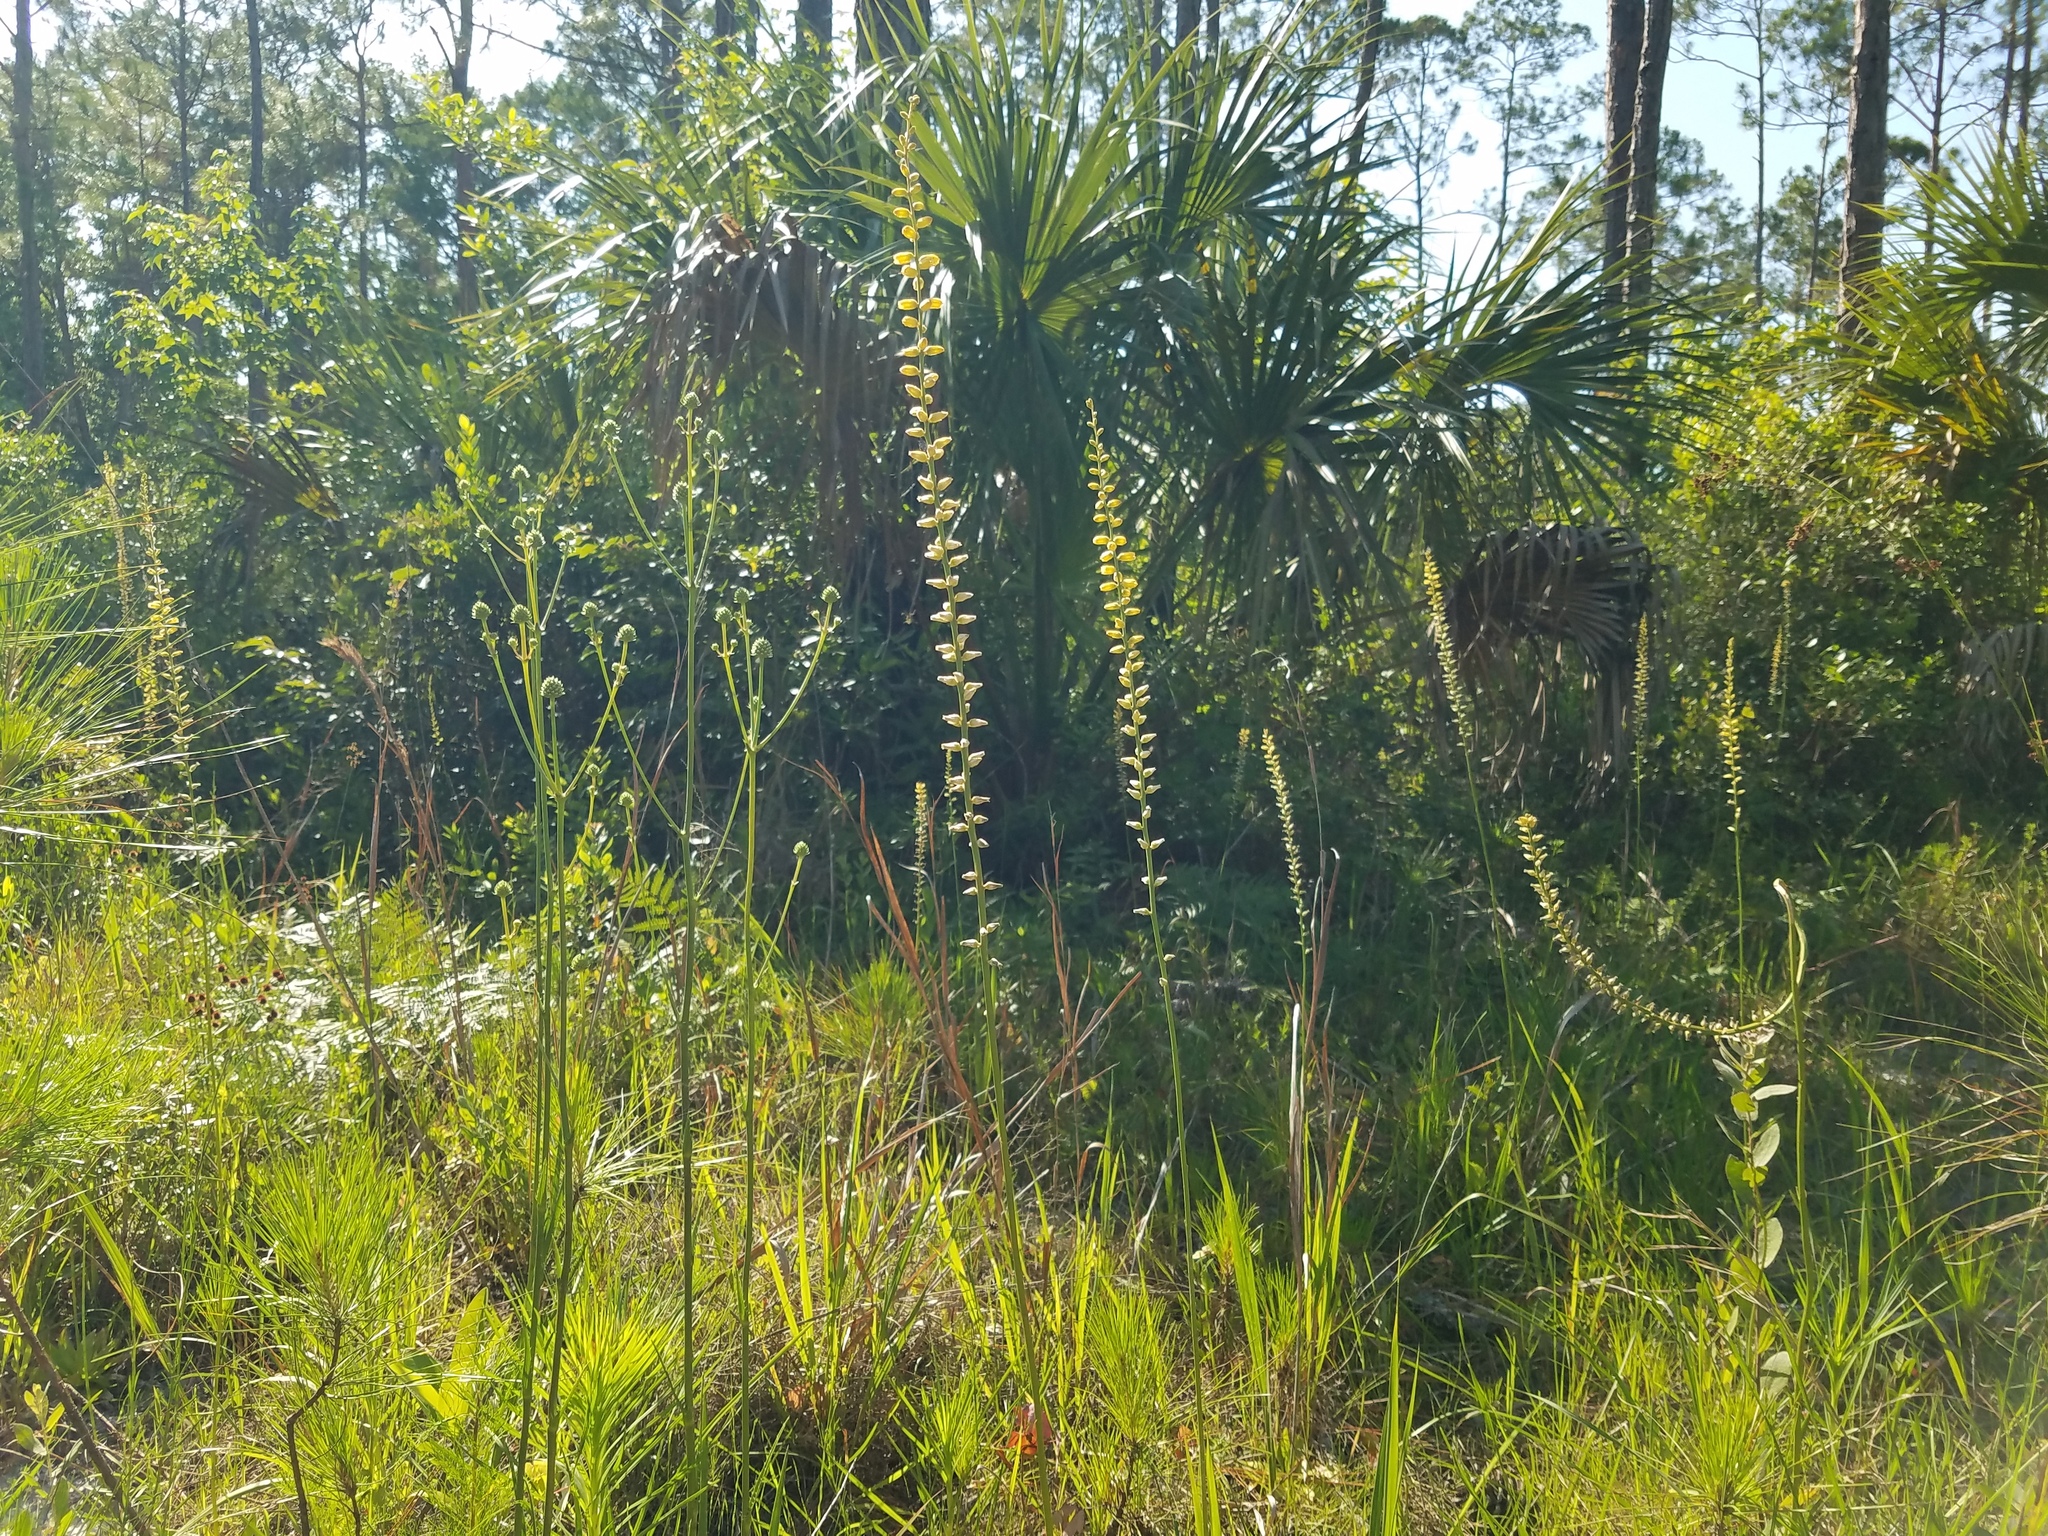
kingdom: Plantae
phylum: Tracheophyta
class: Liliopsida
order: Dioscoreales
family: Nartheciaceae
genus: Aletris
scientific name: Aletris lutea
